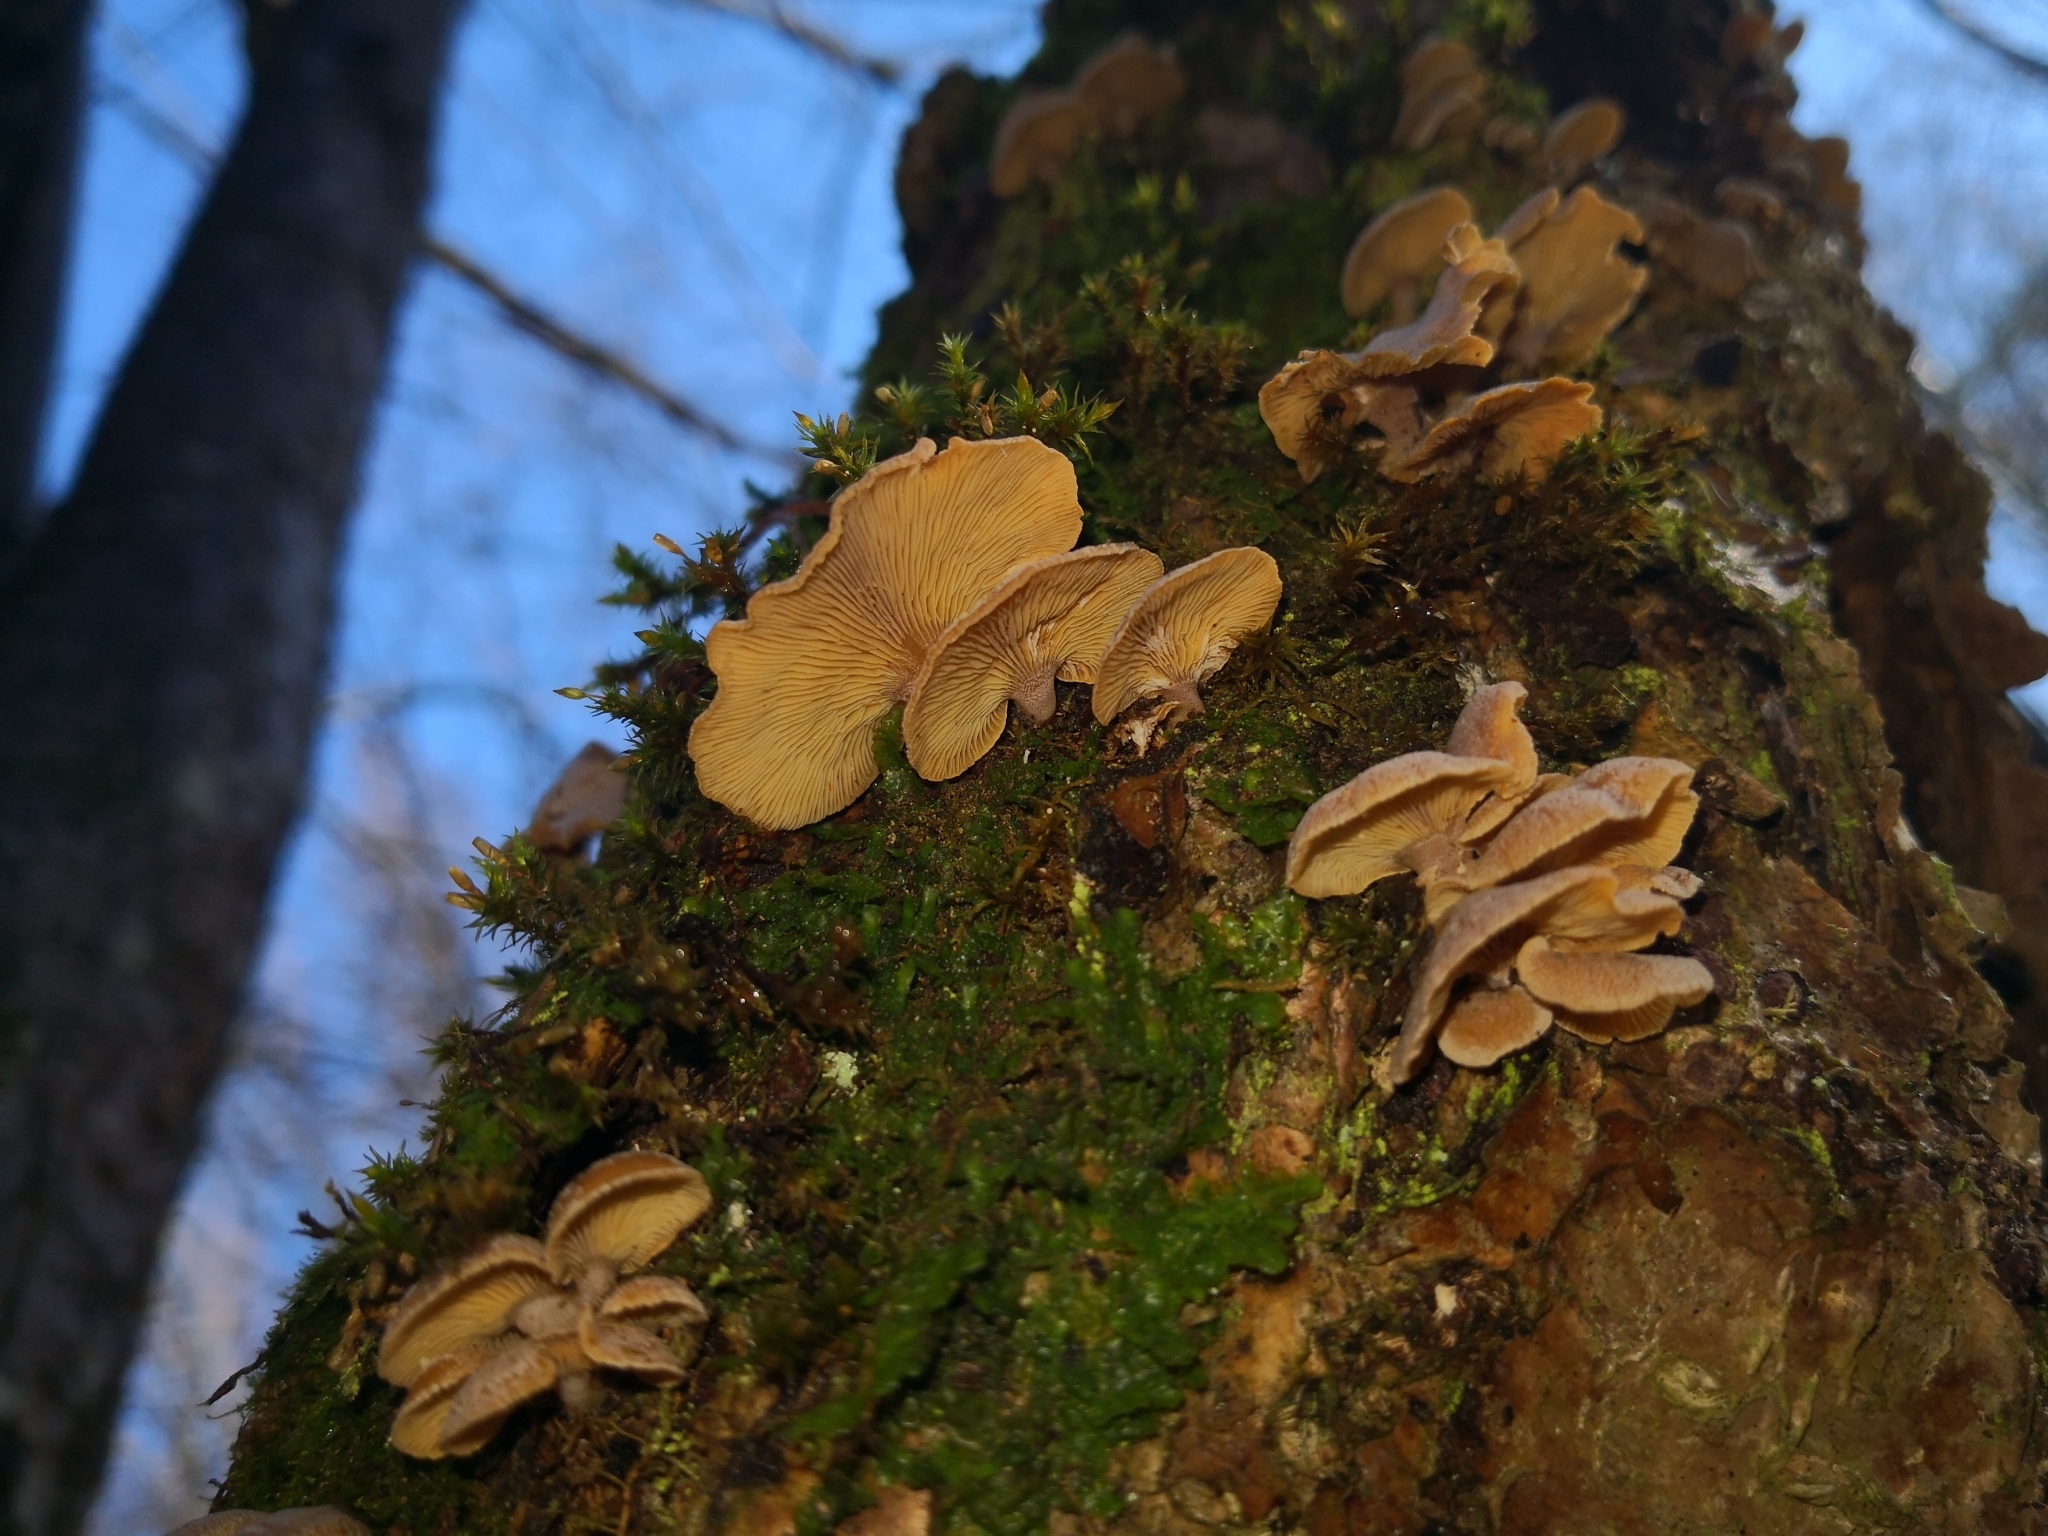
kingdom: Fungi
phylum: Basidiomycota
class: Agaricomycetes
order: Agaricales
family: Mycenaceae
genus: Panellus
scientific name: Panellus stipticus
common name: Bitter oysterling
